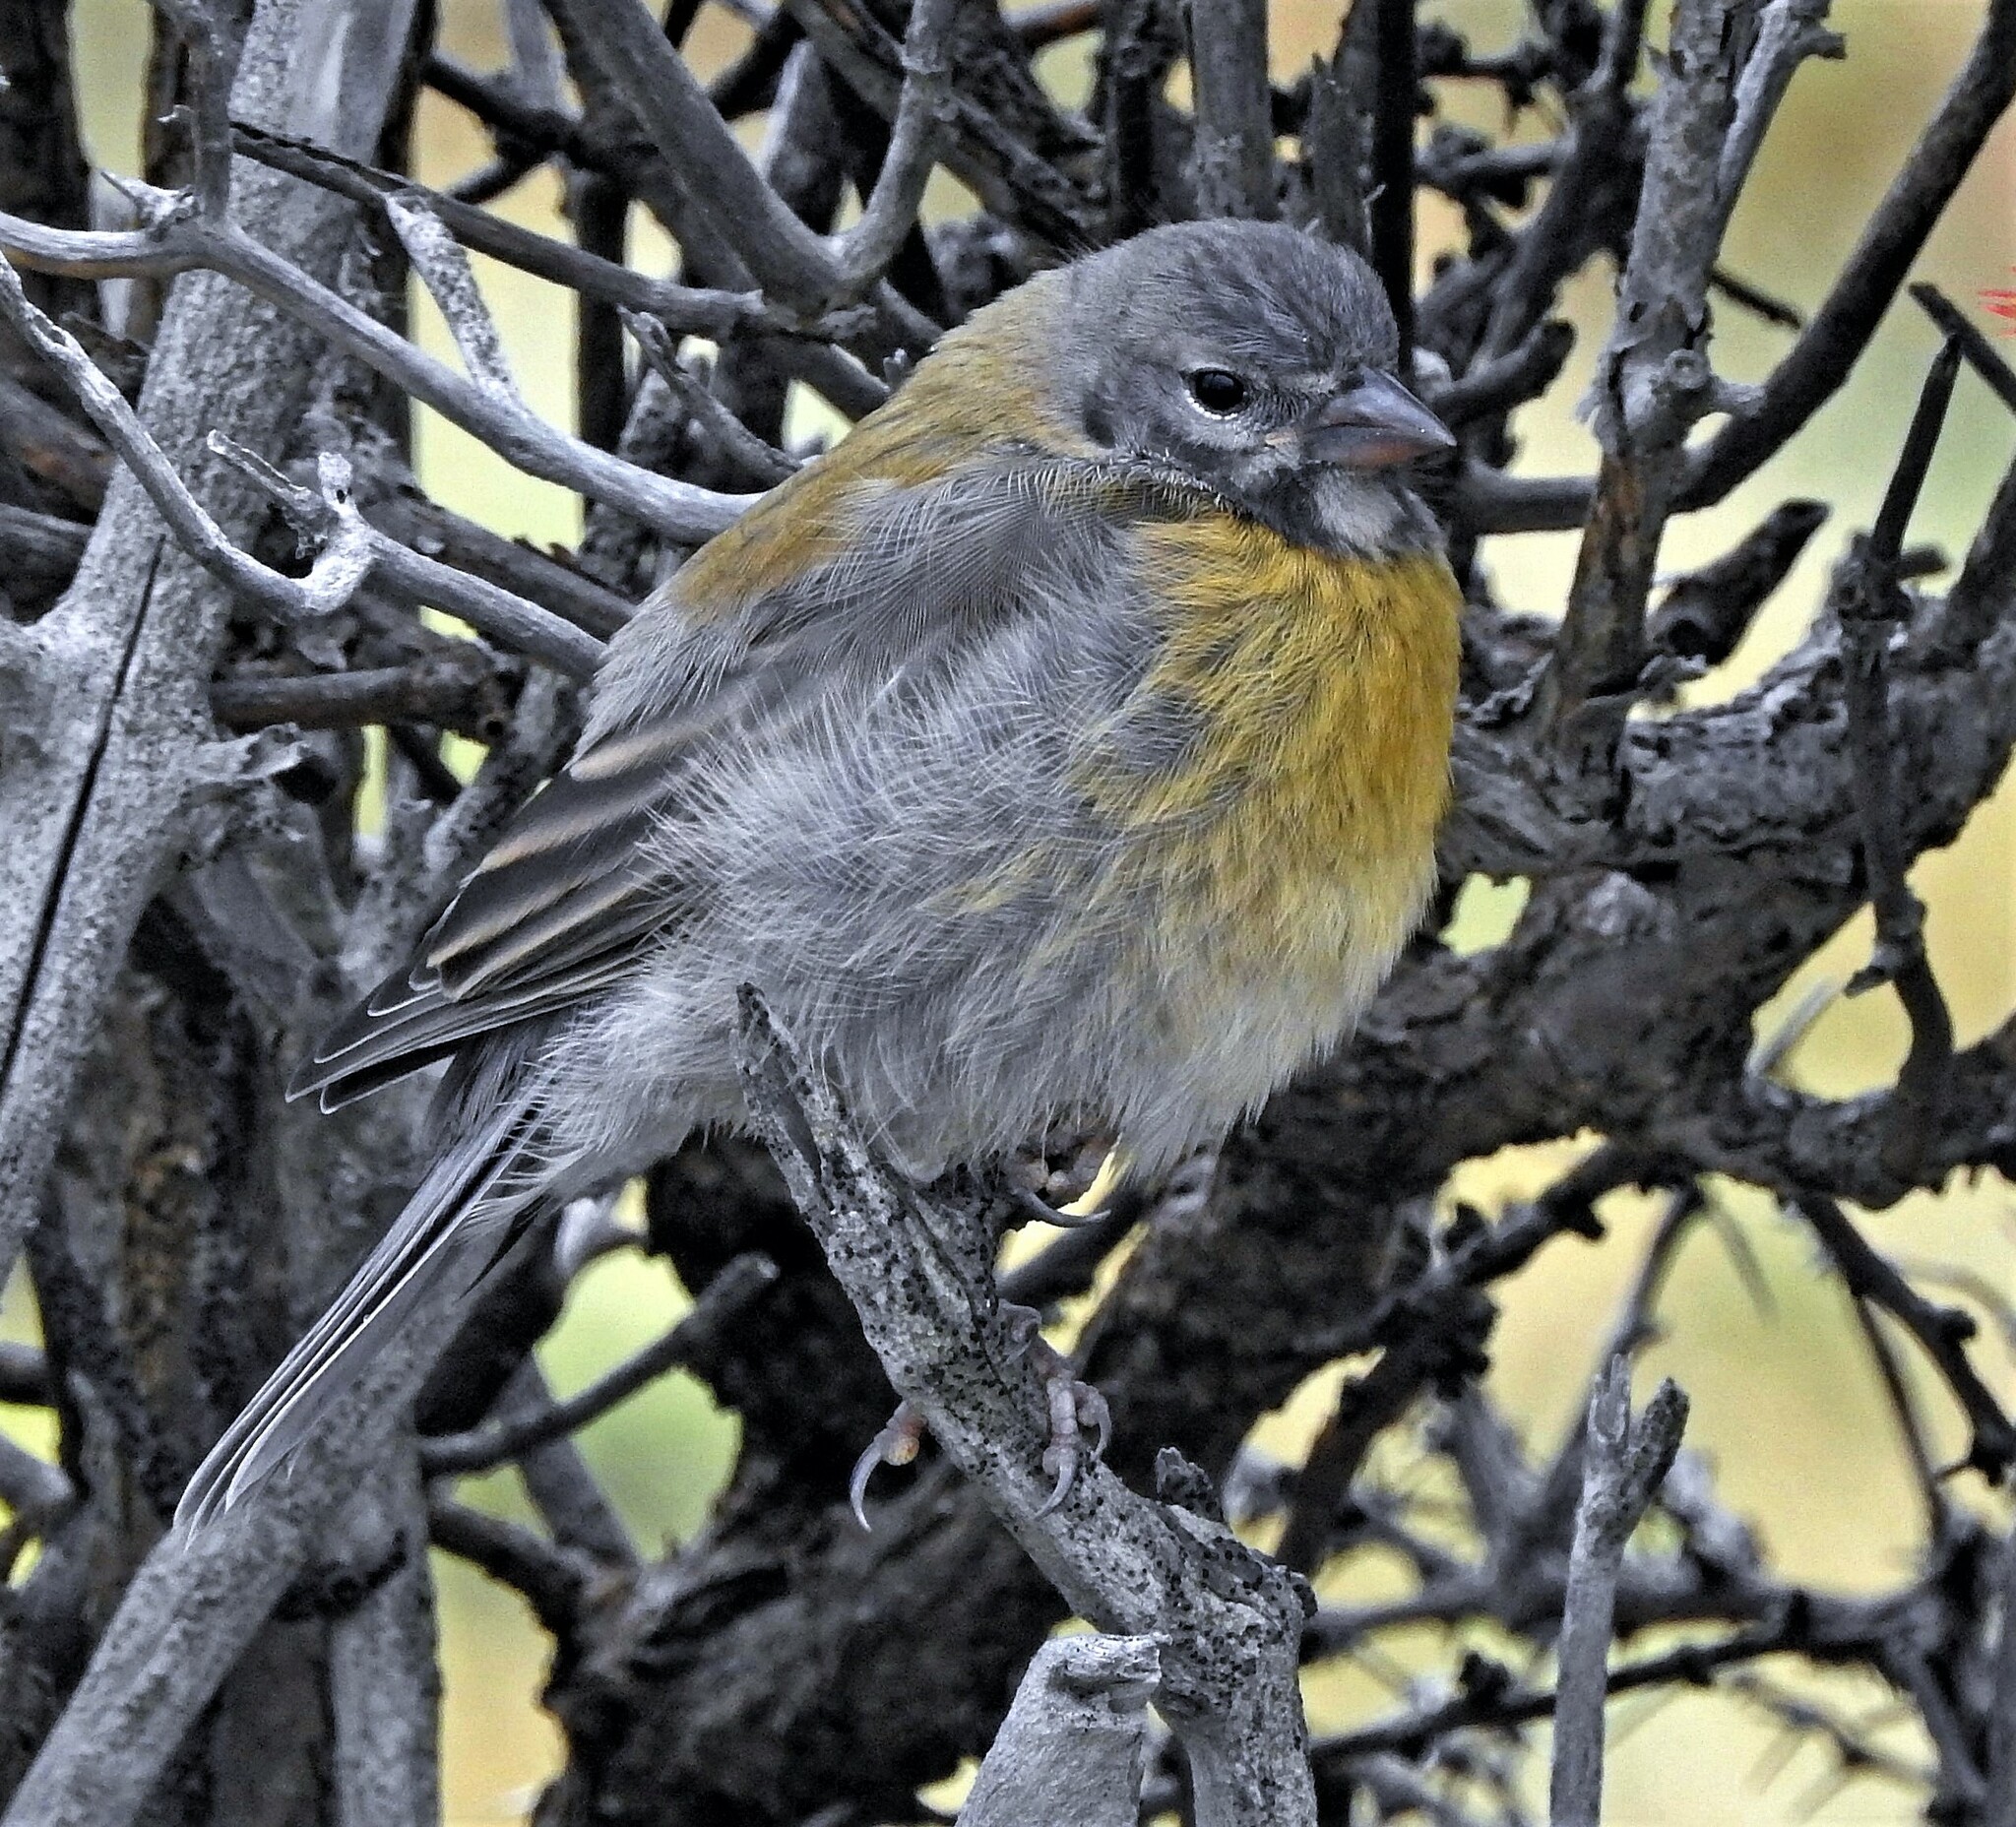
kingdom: Animalia
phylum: Chordata
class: Aves
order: Passeriformes
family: Thraupidae
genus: Phrygilus
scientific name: Phrygilus gayi
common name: Grey-hooded sierra finch
